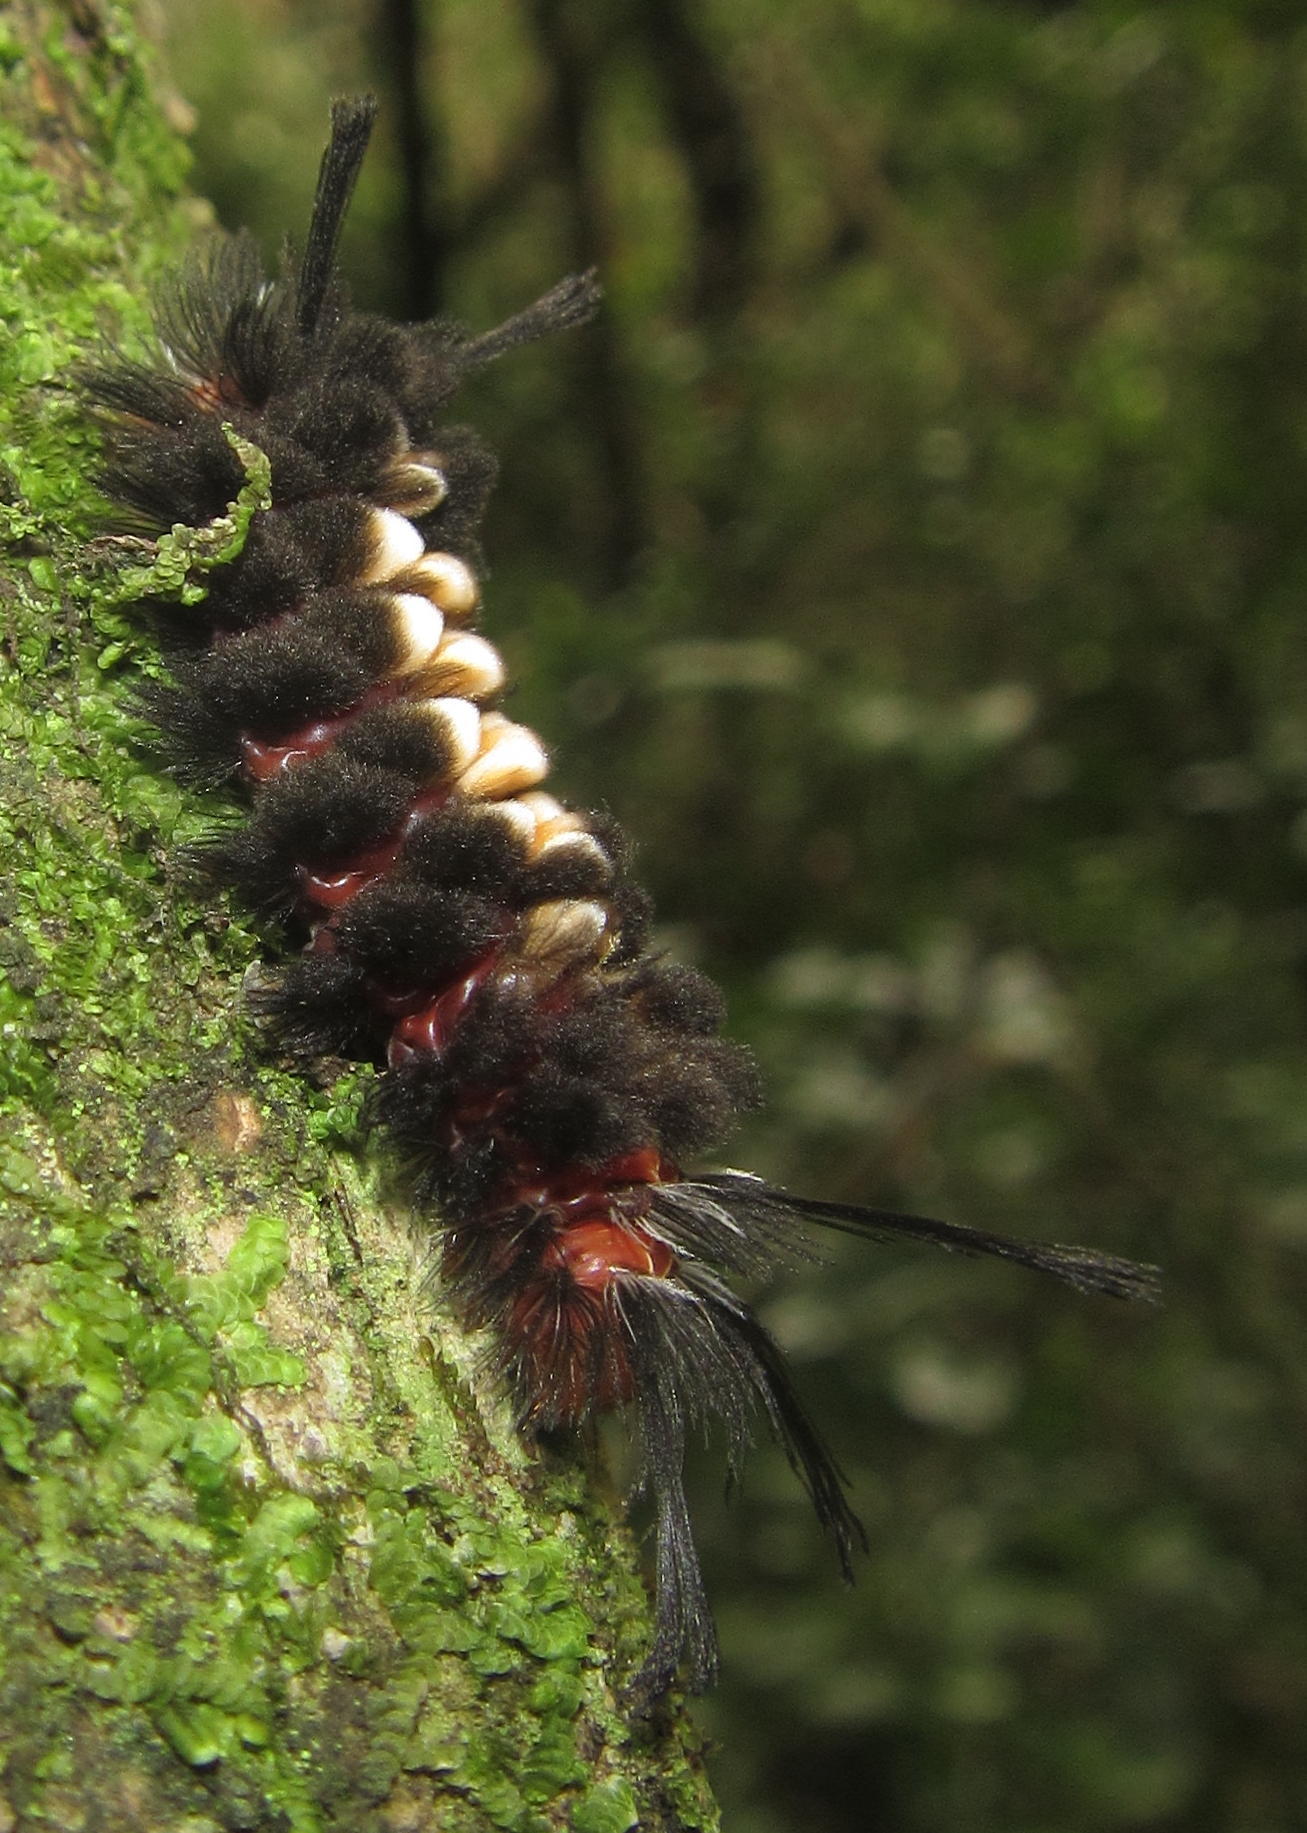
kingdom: Animalia
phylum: Arthropoda
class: Insecta
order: Lepidoptera
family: Erebidae
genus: Euchromia
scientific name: Euchromia amoena
